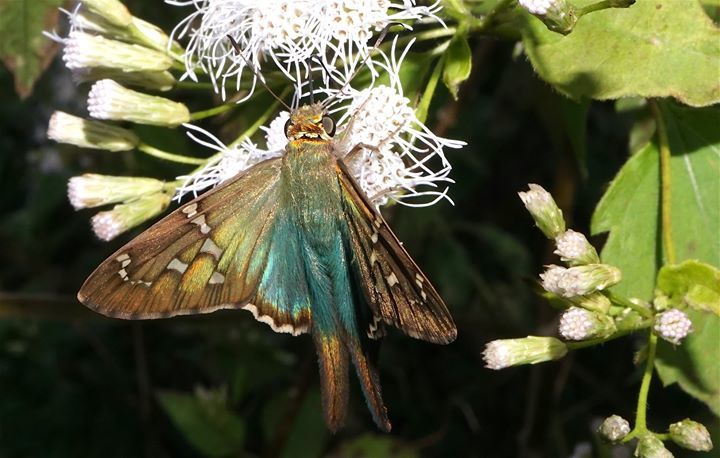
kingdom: Animalia
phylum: Arthropoda
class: Insecta
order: Lepidoptera
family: Hesperiidae
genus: Urbanus
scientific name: Urbanus proteus
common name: Long-tailed skipper
